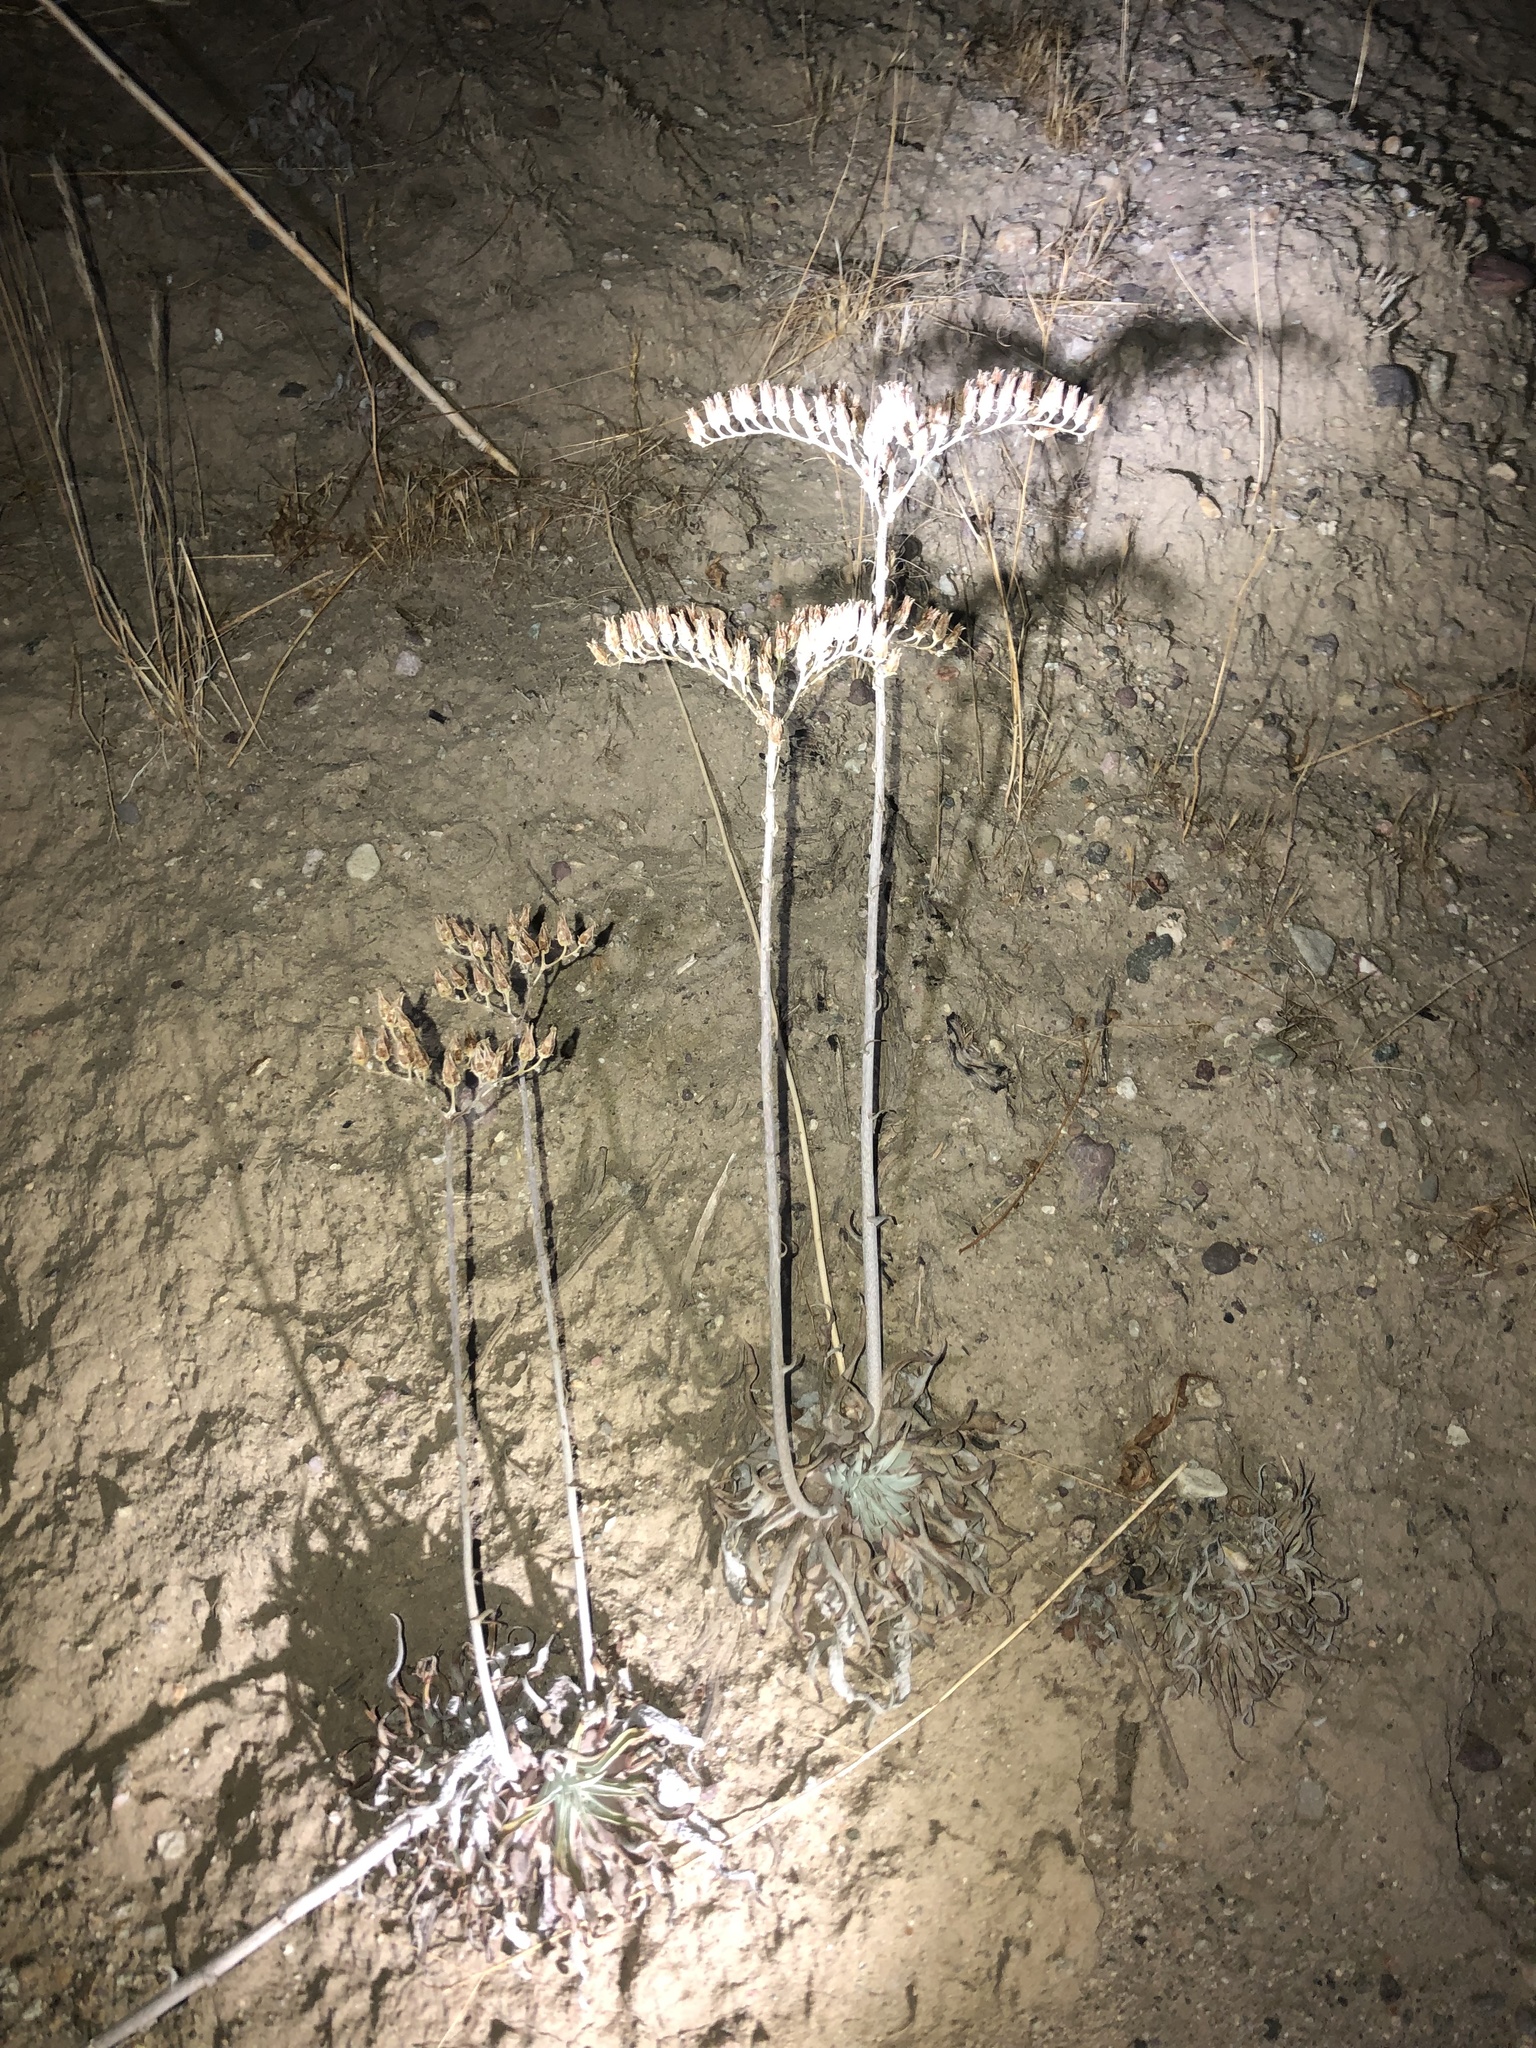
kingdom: Plantae
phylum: Tracheophyta
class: Magnoliopsida
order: Saxifragales
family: Crassulaceae
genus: Dudleya
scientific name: Dudleya lanceolata
